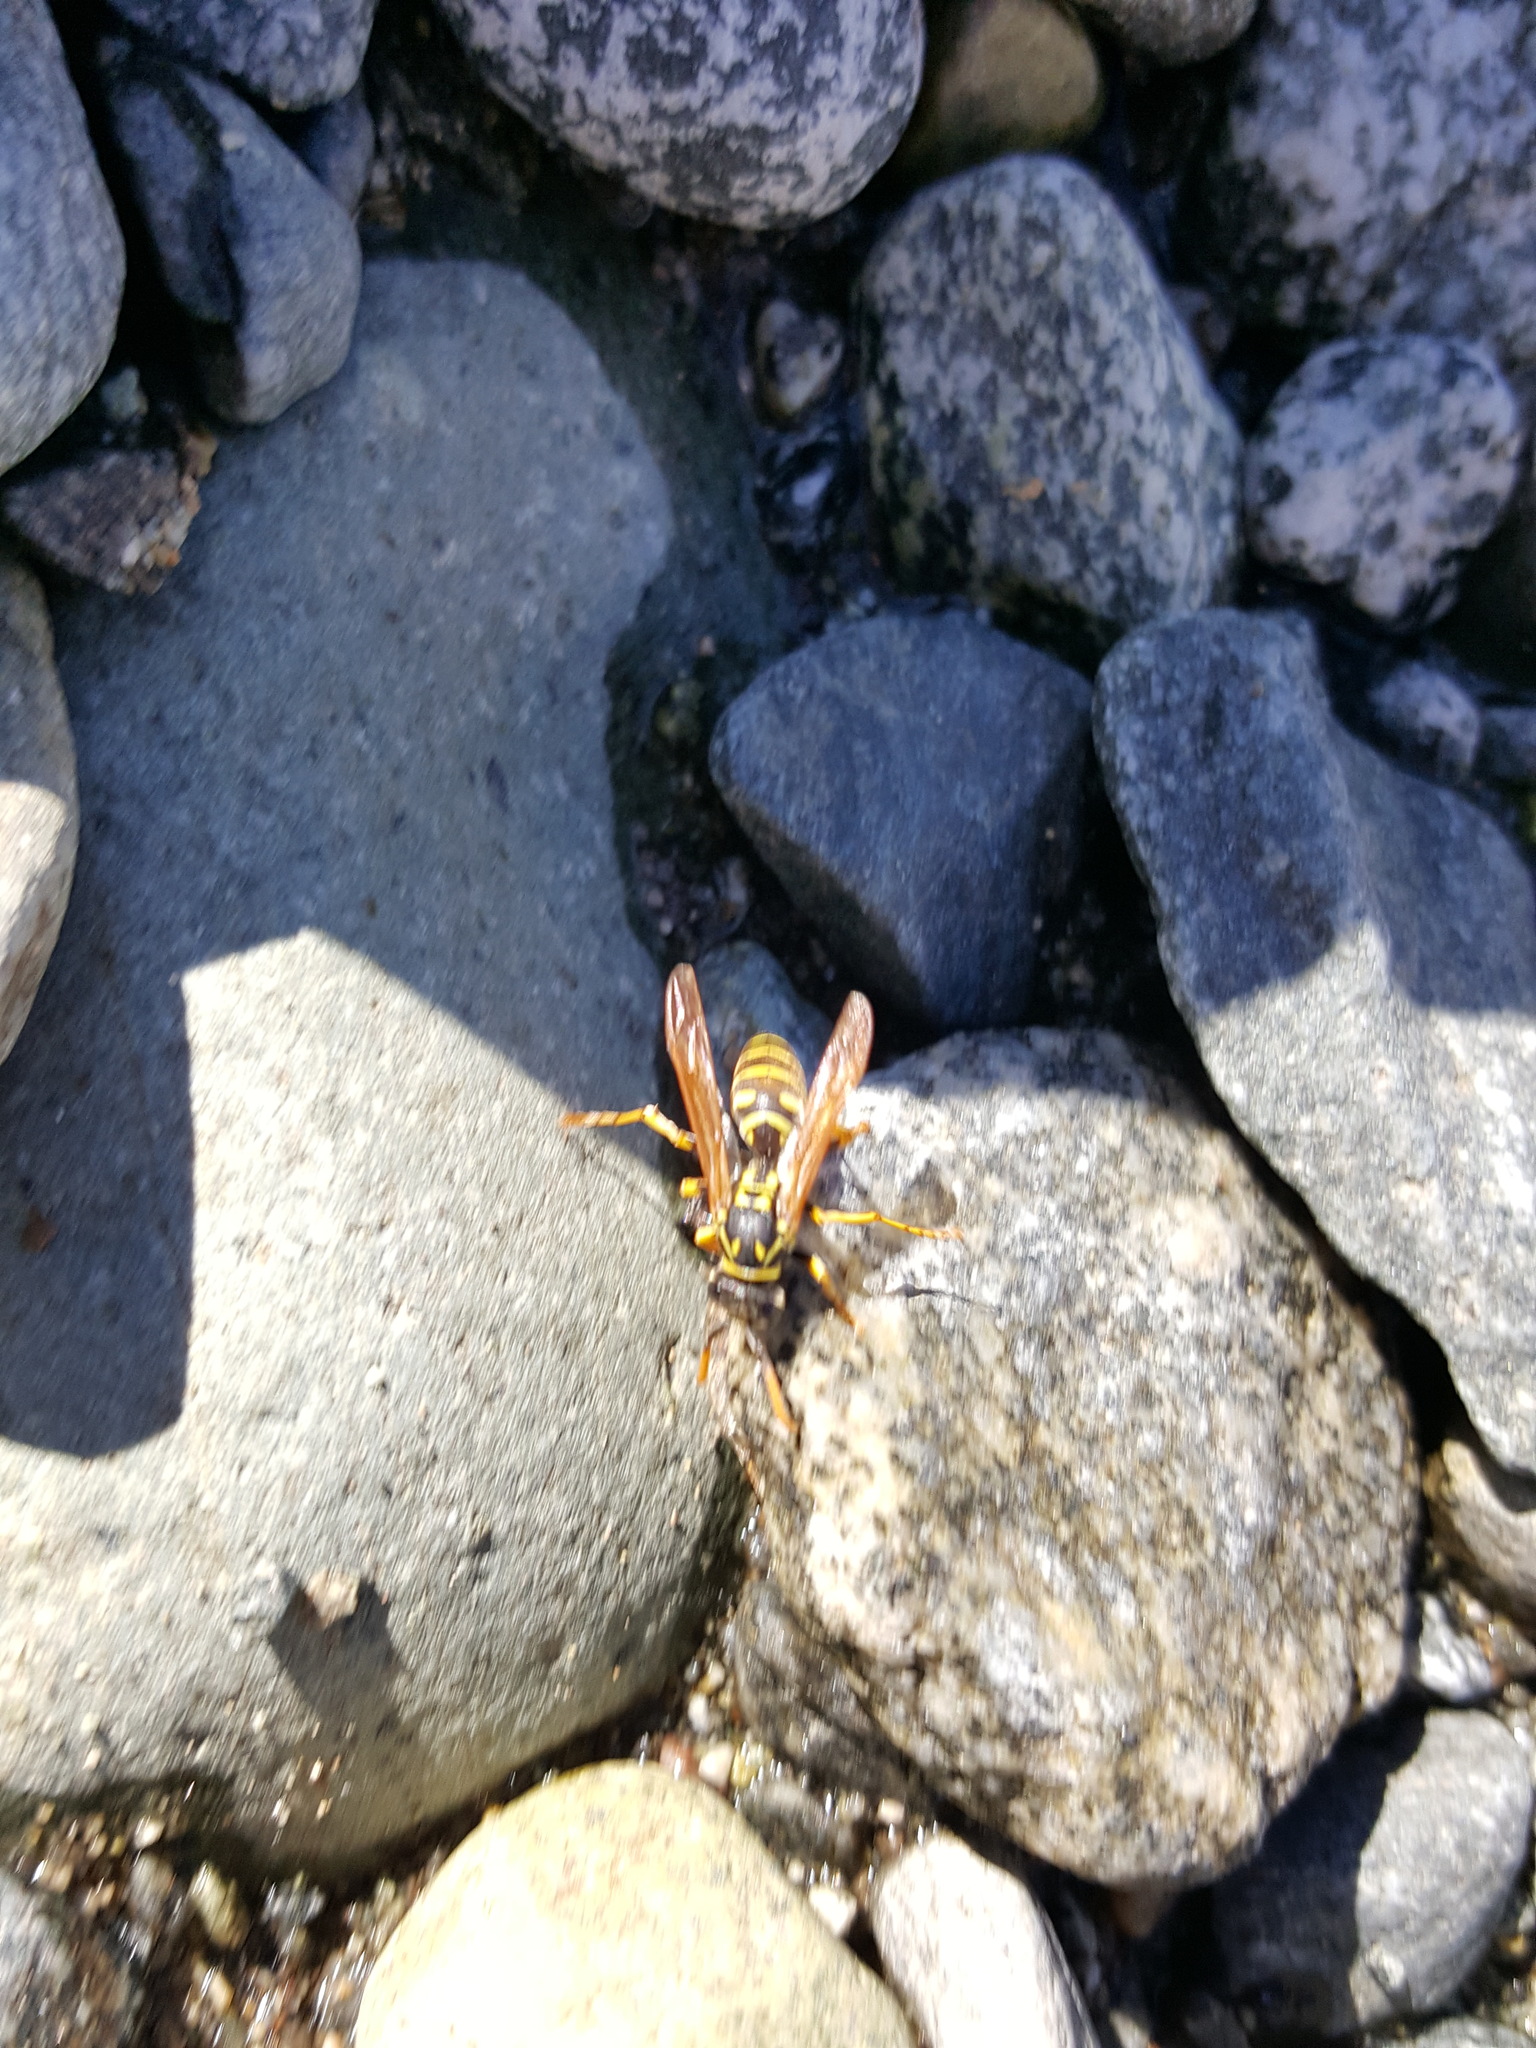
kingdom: Animalia
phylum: Arthropoda
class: Insecta
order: Hymenoptera
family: Eumenidae
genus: Polistes
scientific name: Polistes dominula
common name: Paper wasp
